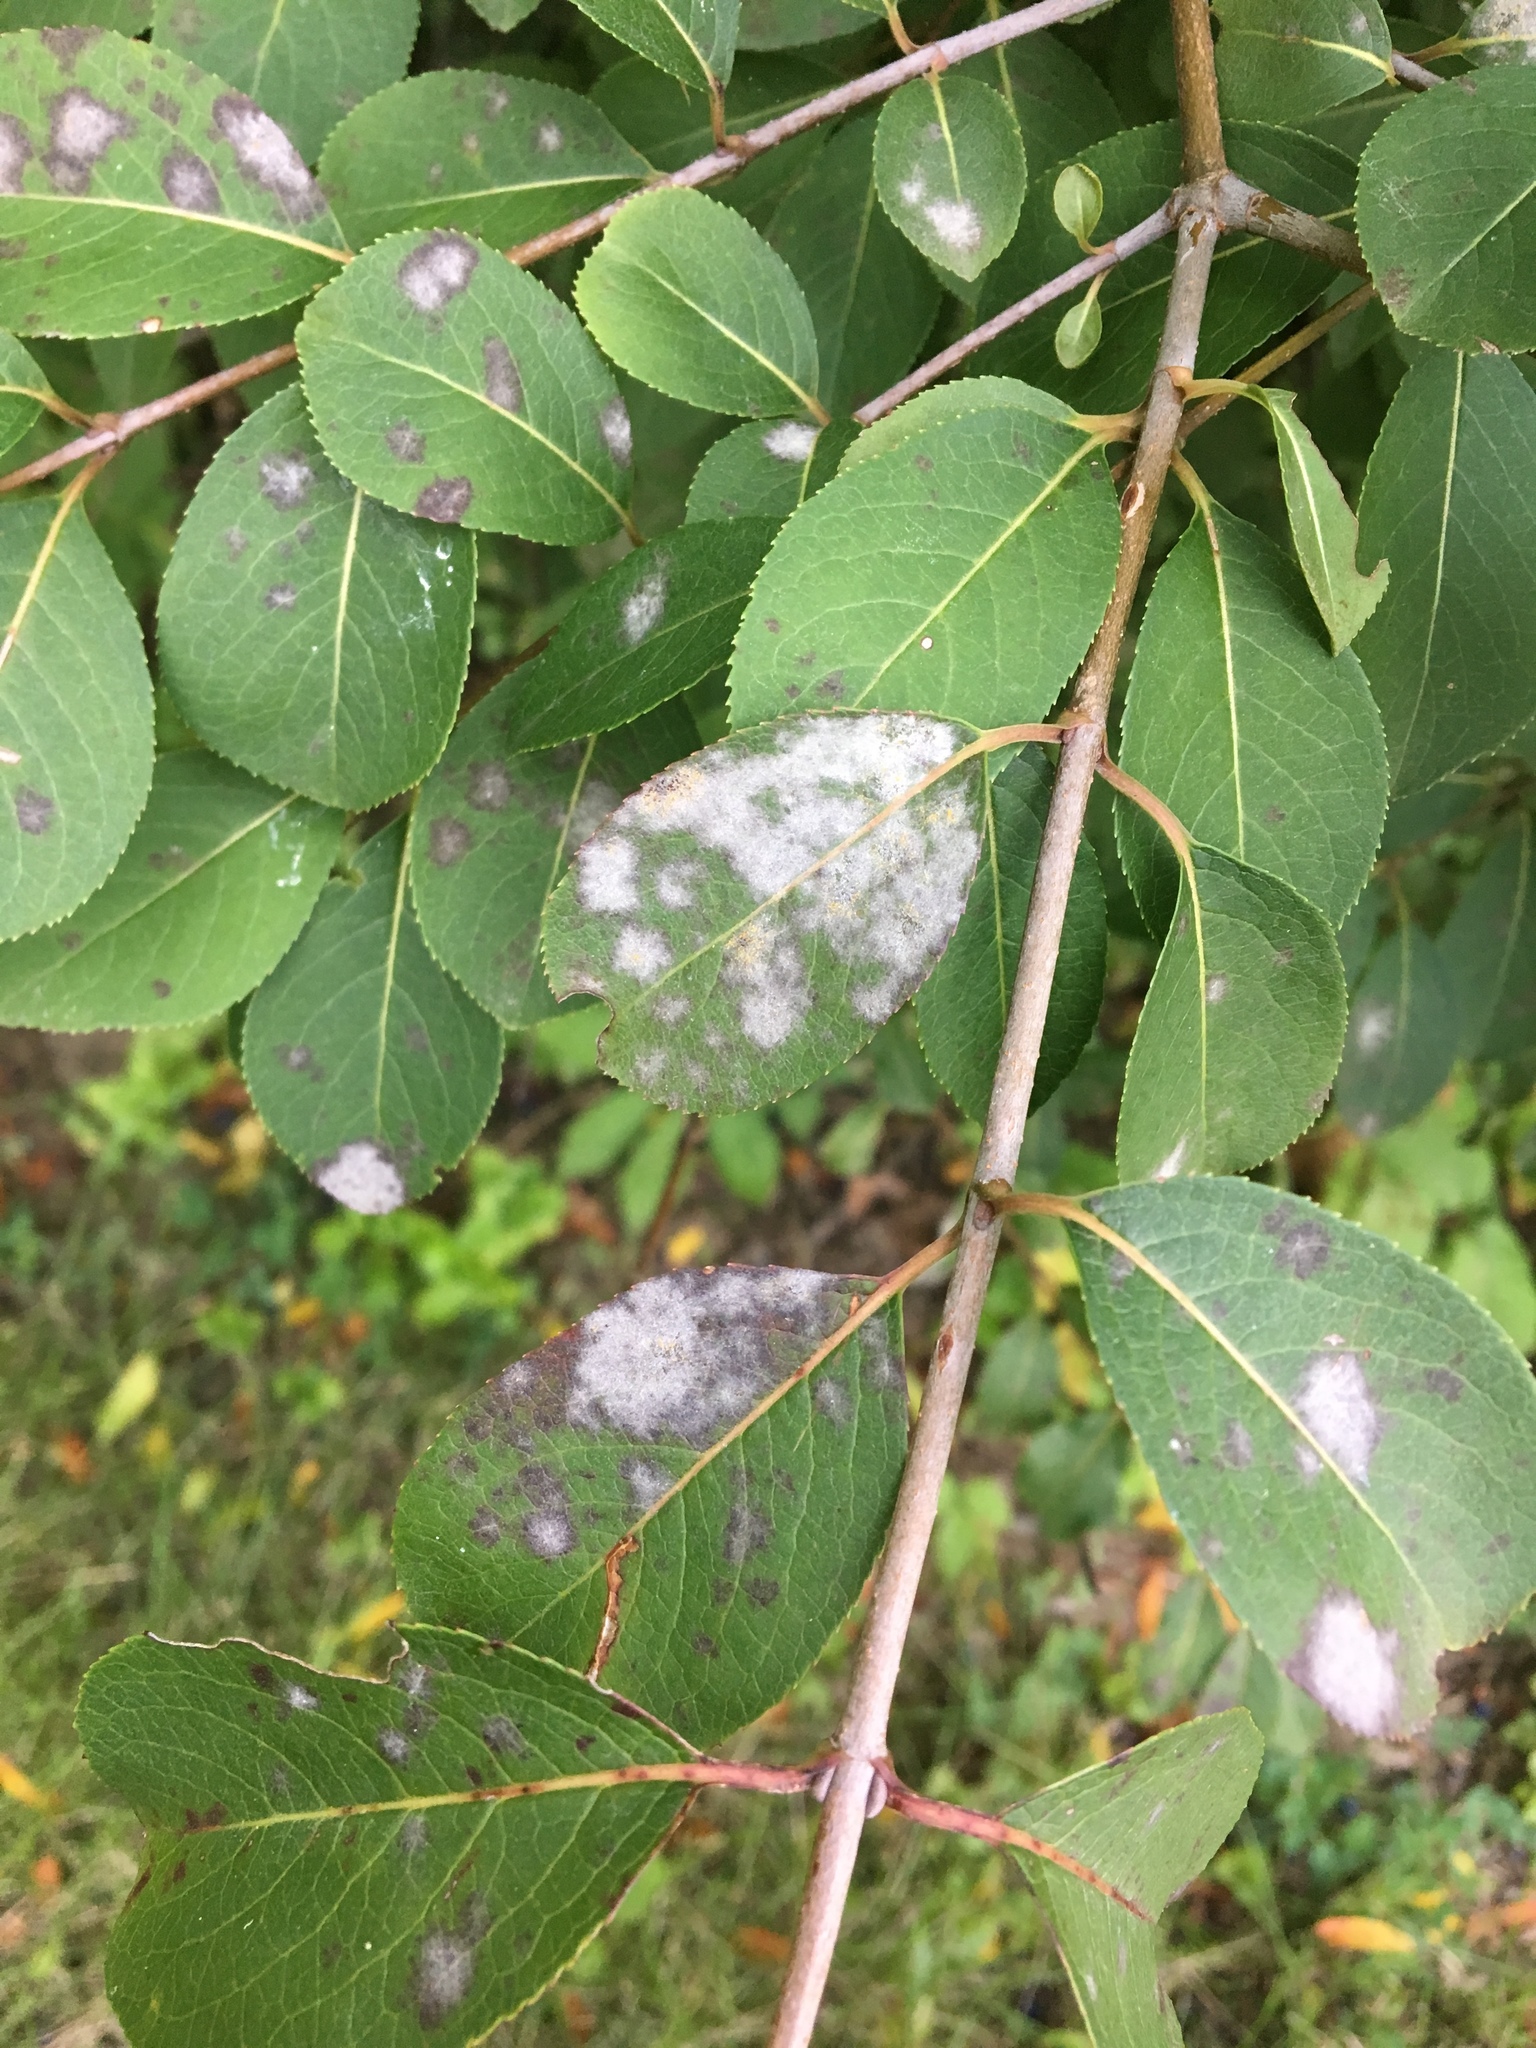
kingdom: Fungi
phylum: Ascomycota
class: Leotiomycetes
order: Helotiales
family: Erysiphaceae
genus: Erysiphe
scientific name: Erysiphe viburni
